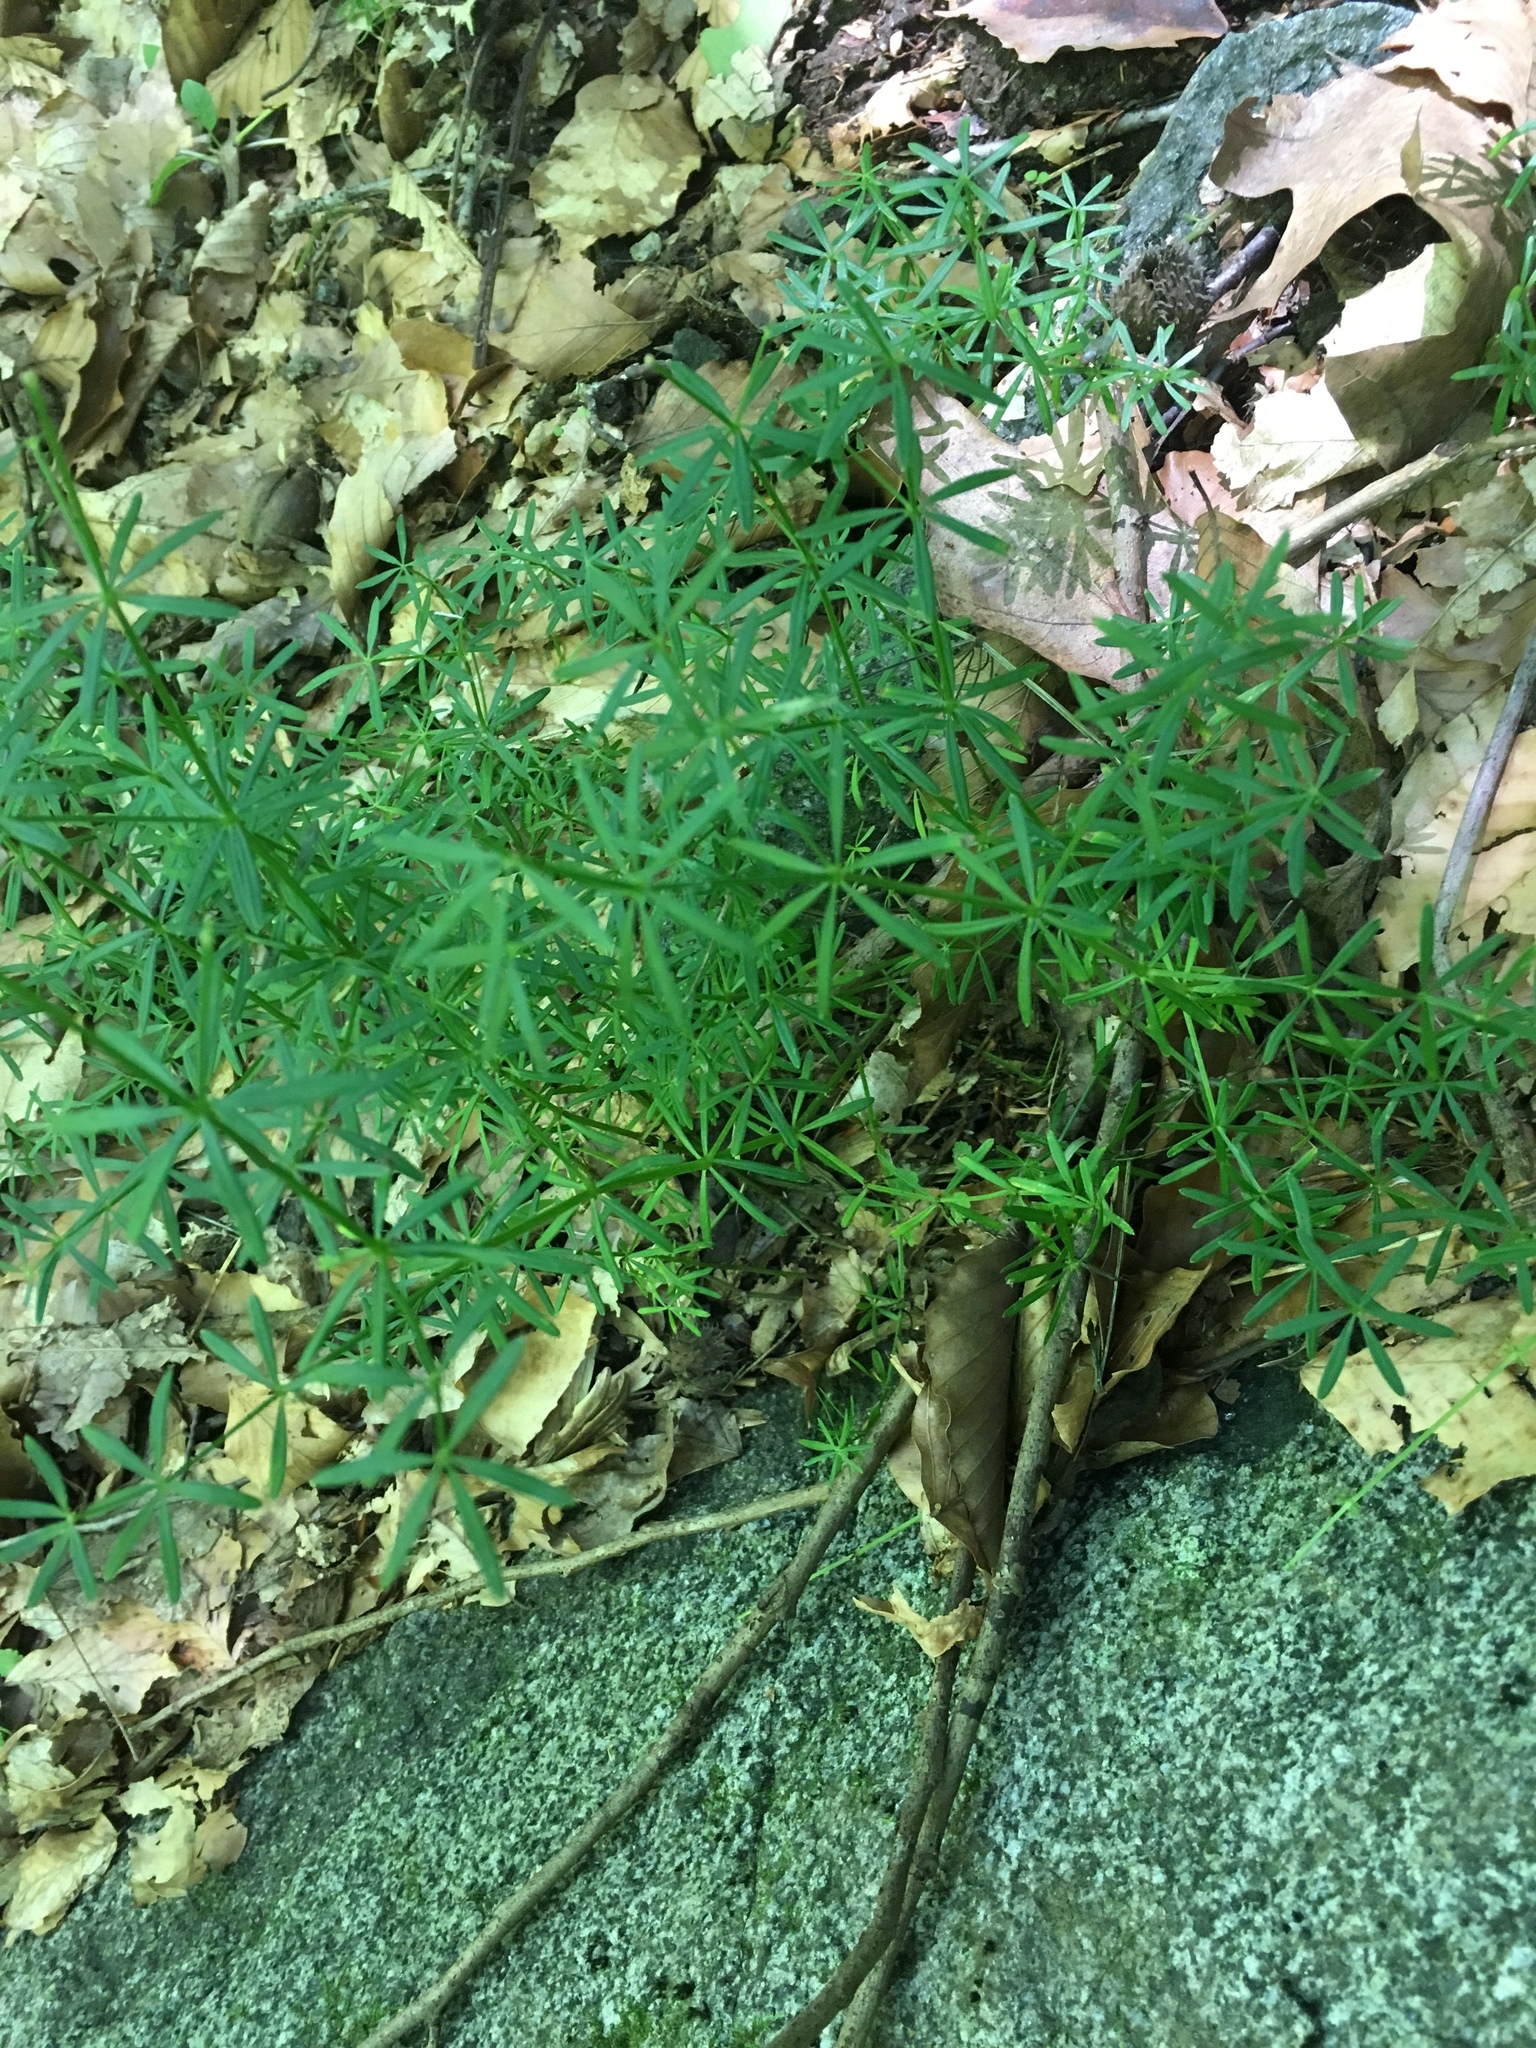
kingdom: Plantae
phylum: Tracheophyta
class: Magnoliopsida
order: Gentianales
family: Rubiaceae
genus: Galium
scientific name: Galium concinnum
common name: Shining bedstraw
